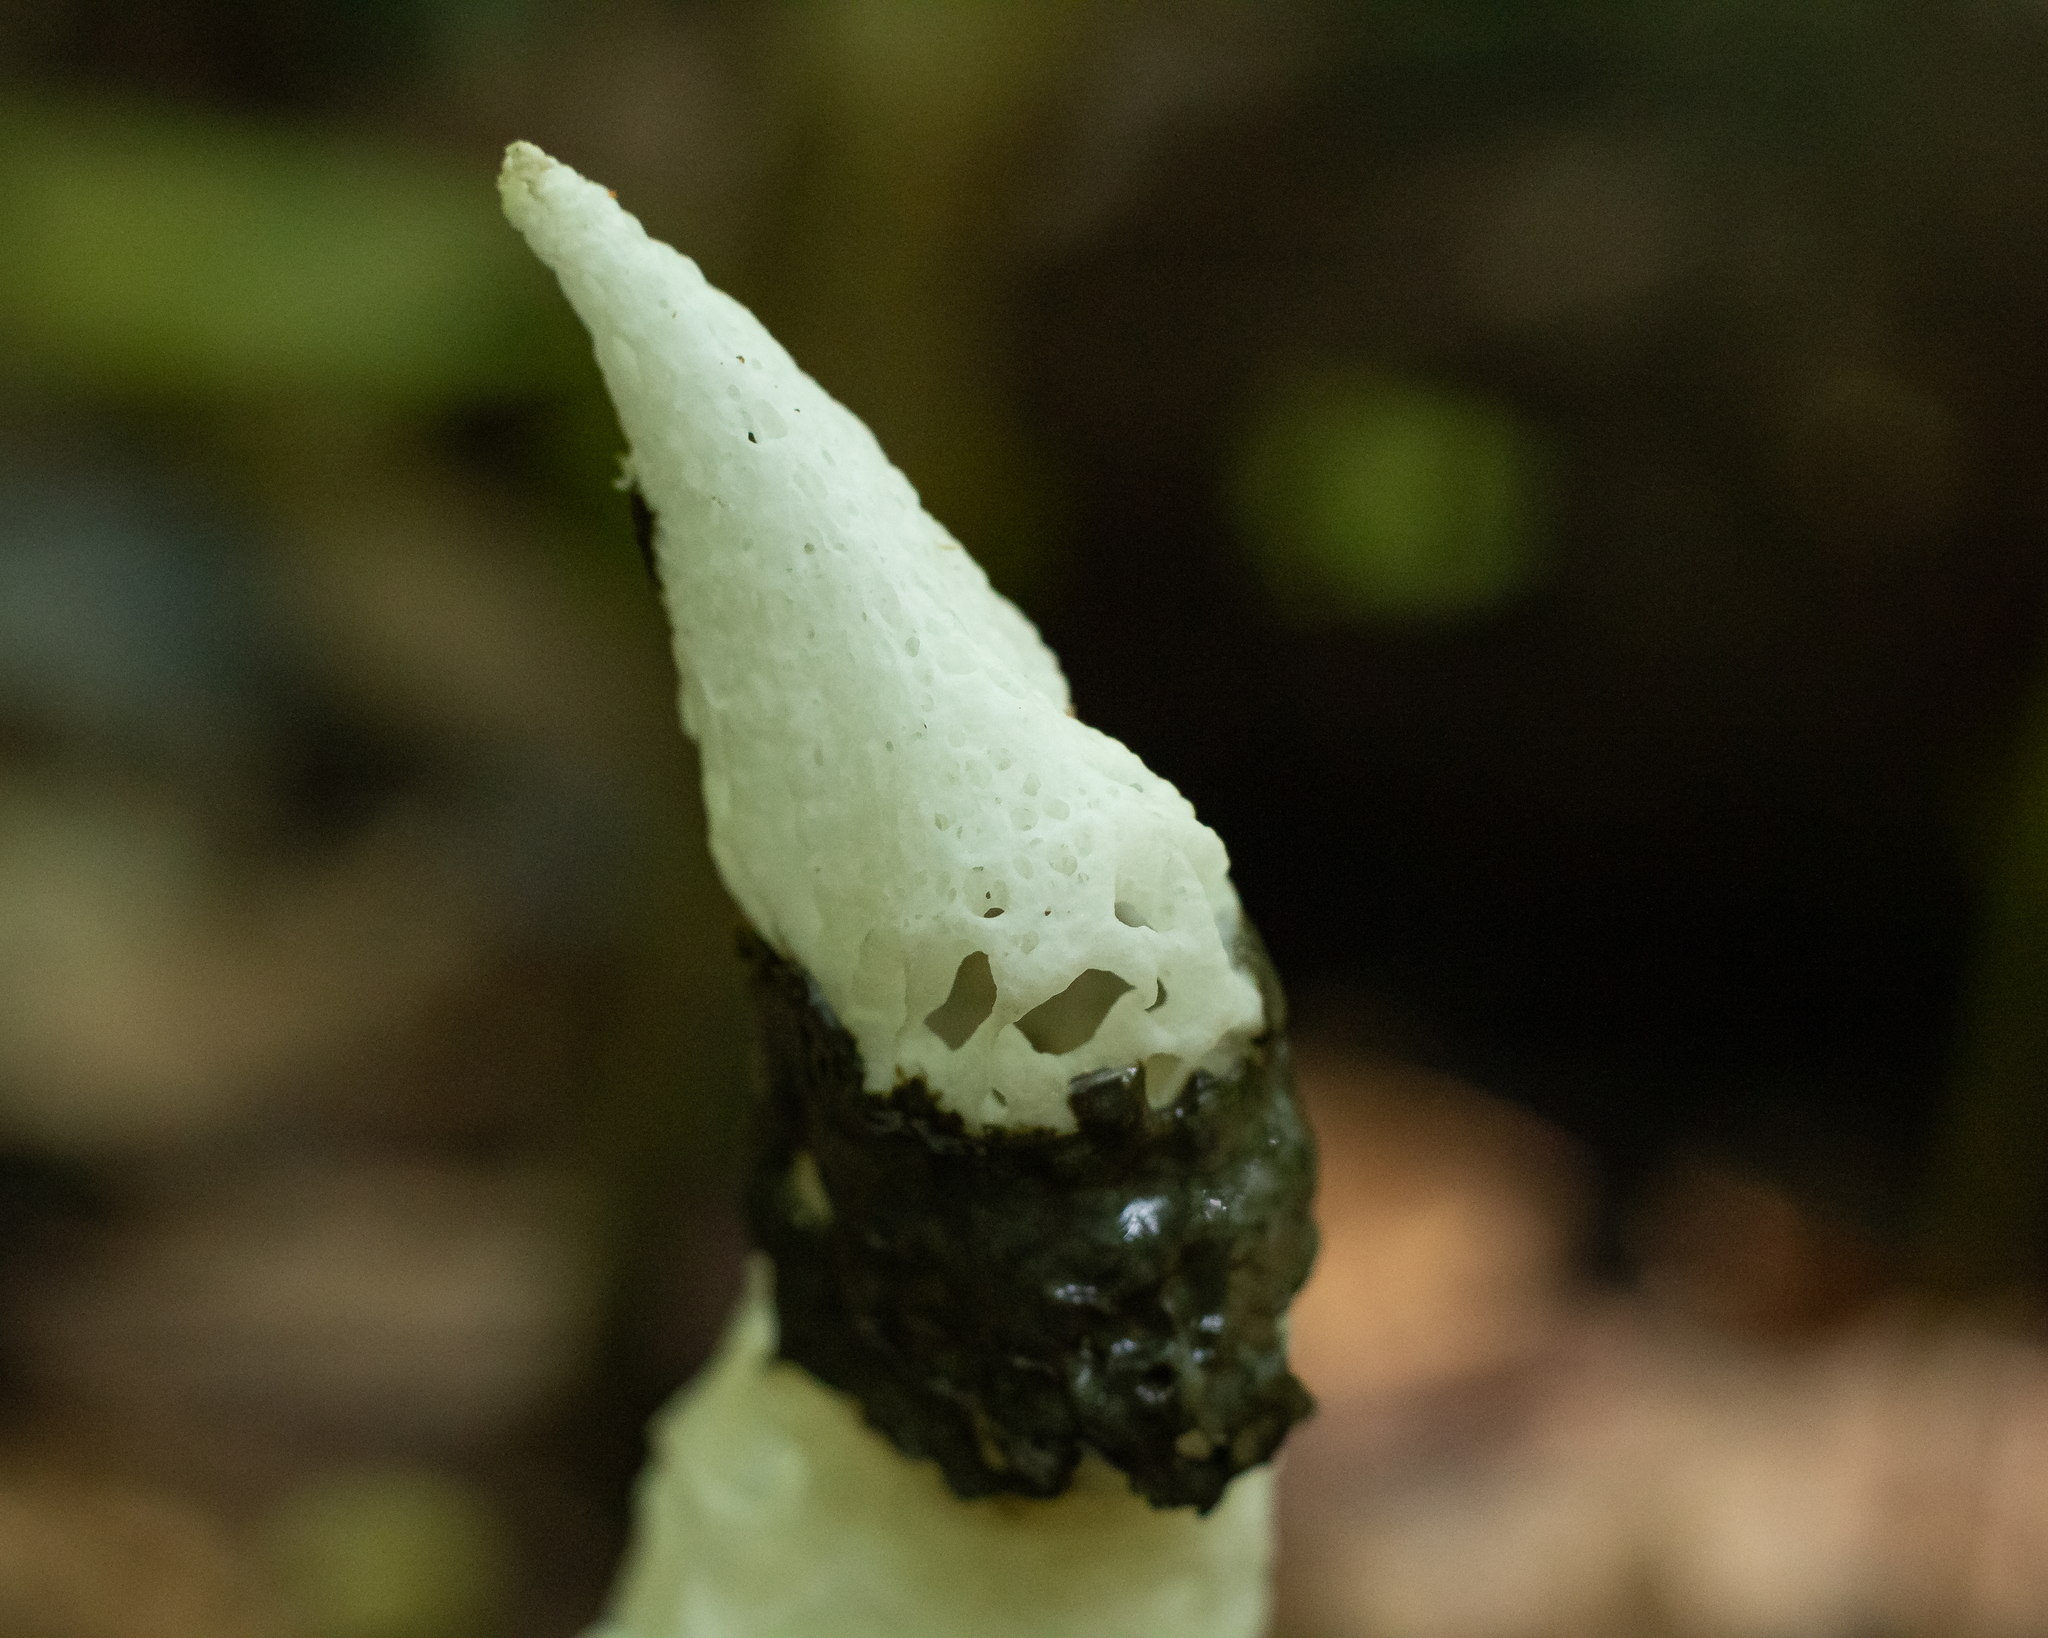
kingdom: Fungi
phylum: Basidiomycota
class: Agaricomycetes
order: Phallales
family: Phallaceae
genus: Staheliomyces
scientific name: Staheliomyces cinctus
